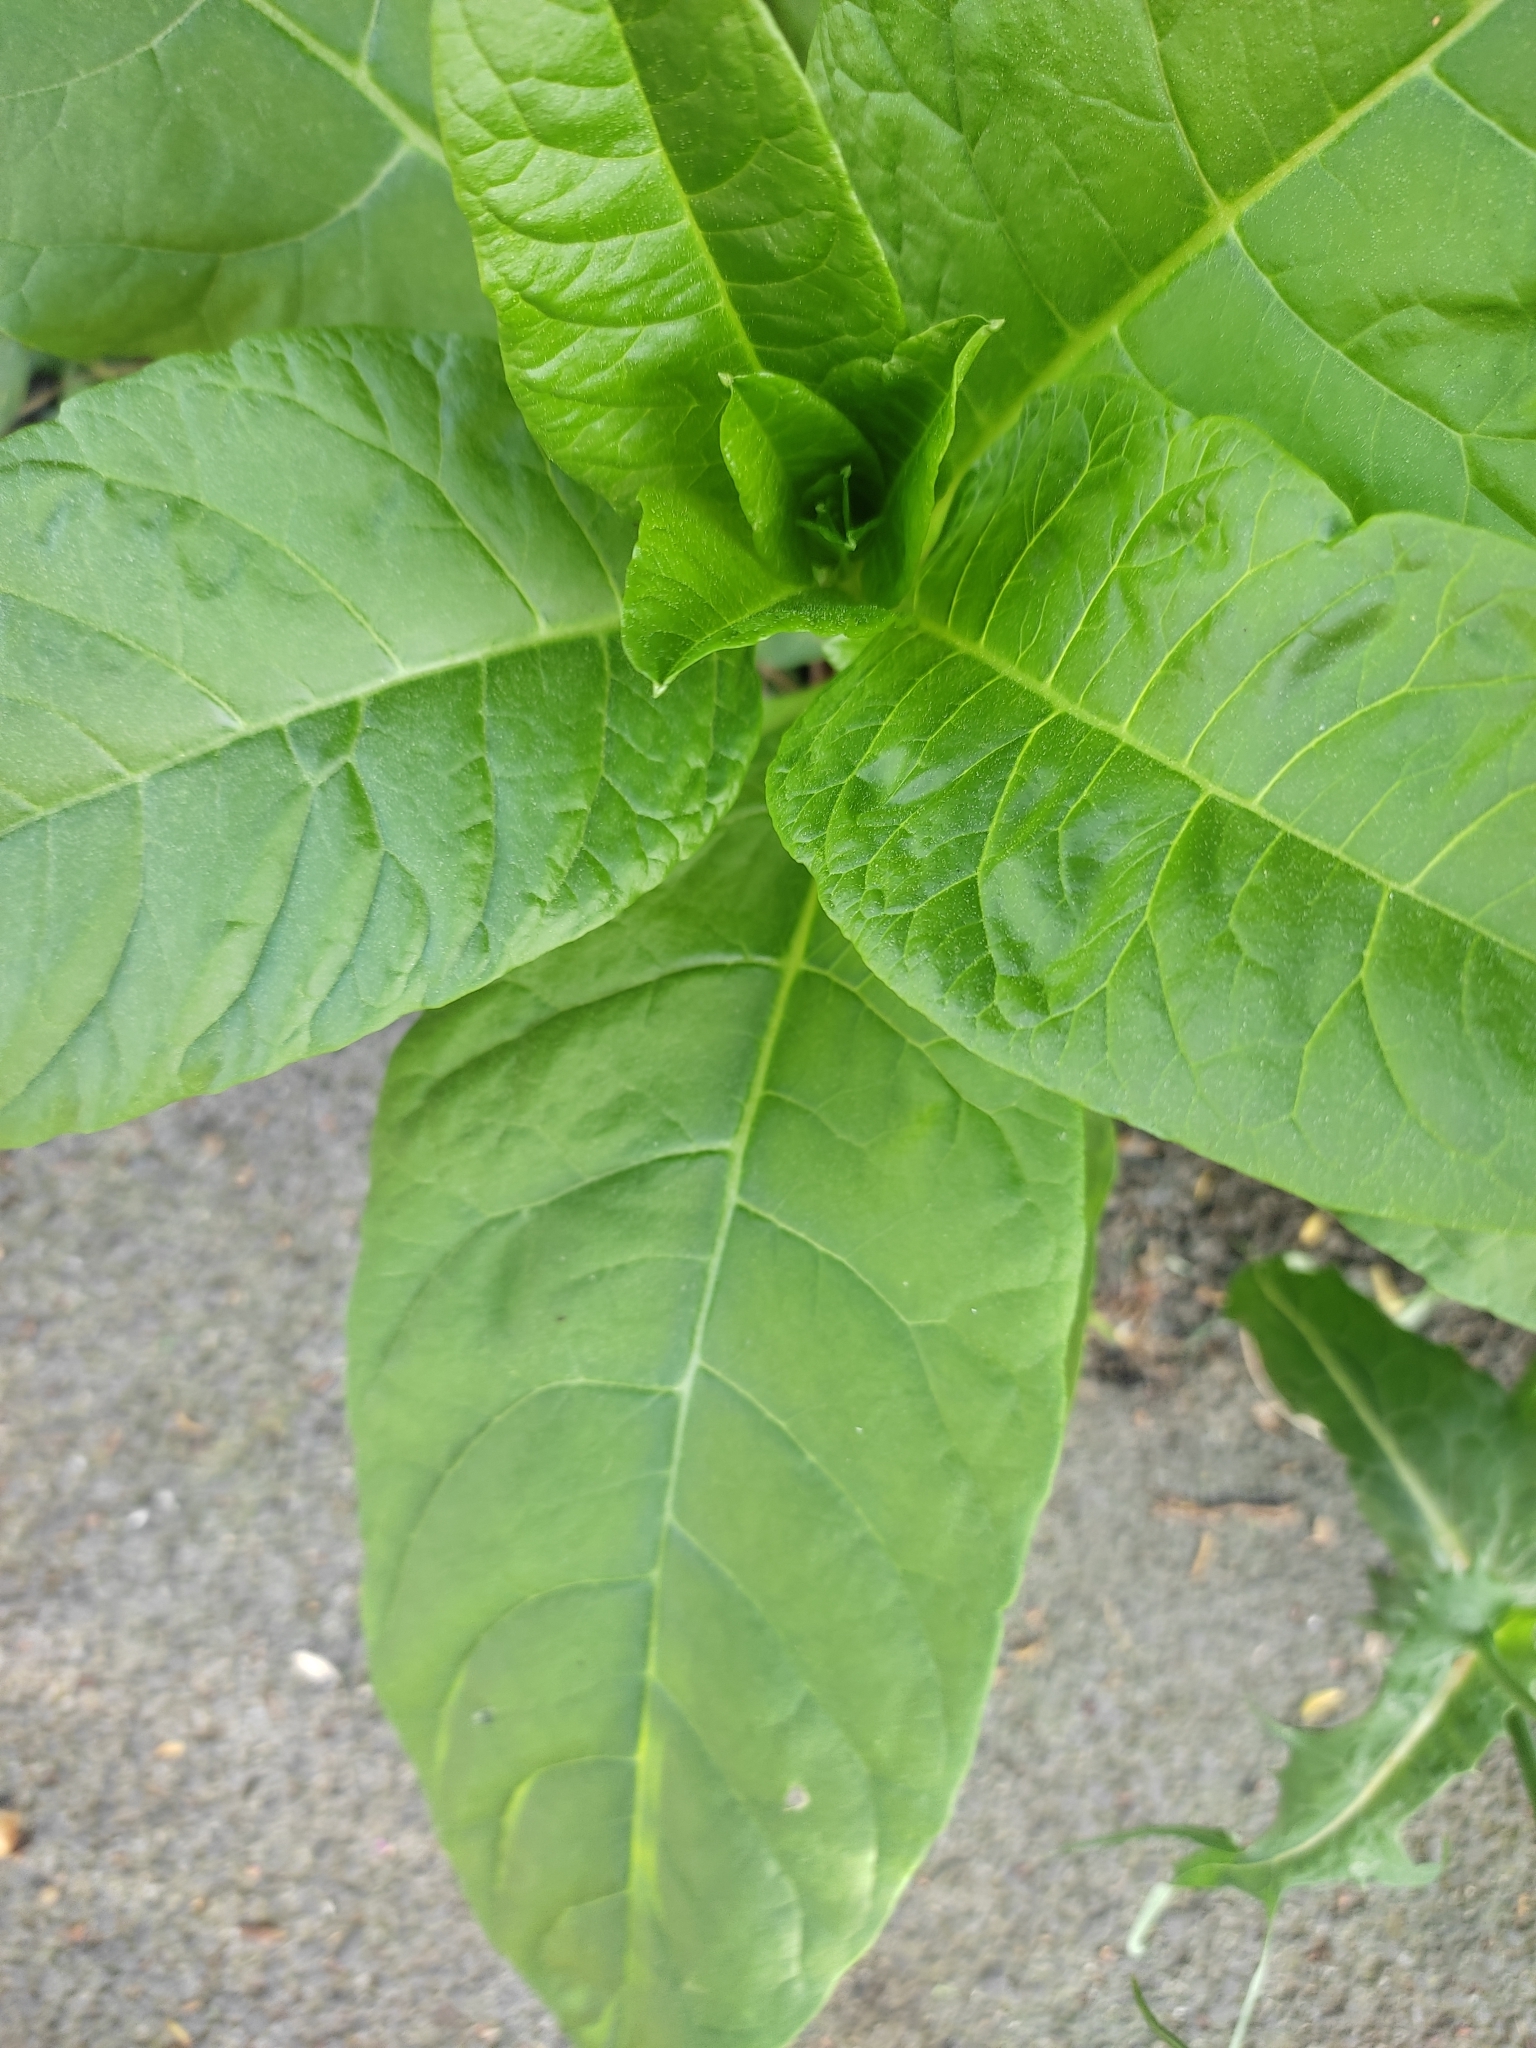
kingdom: Plantae
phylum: Tracheophyta
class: Magnoliopsida
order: Caryophyllales
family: Phytolaccaceae
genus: Phytolacca
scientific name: Phytolacca americana
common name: American pokeweed
